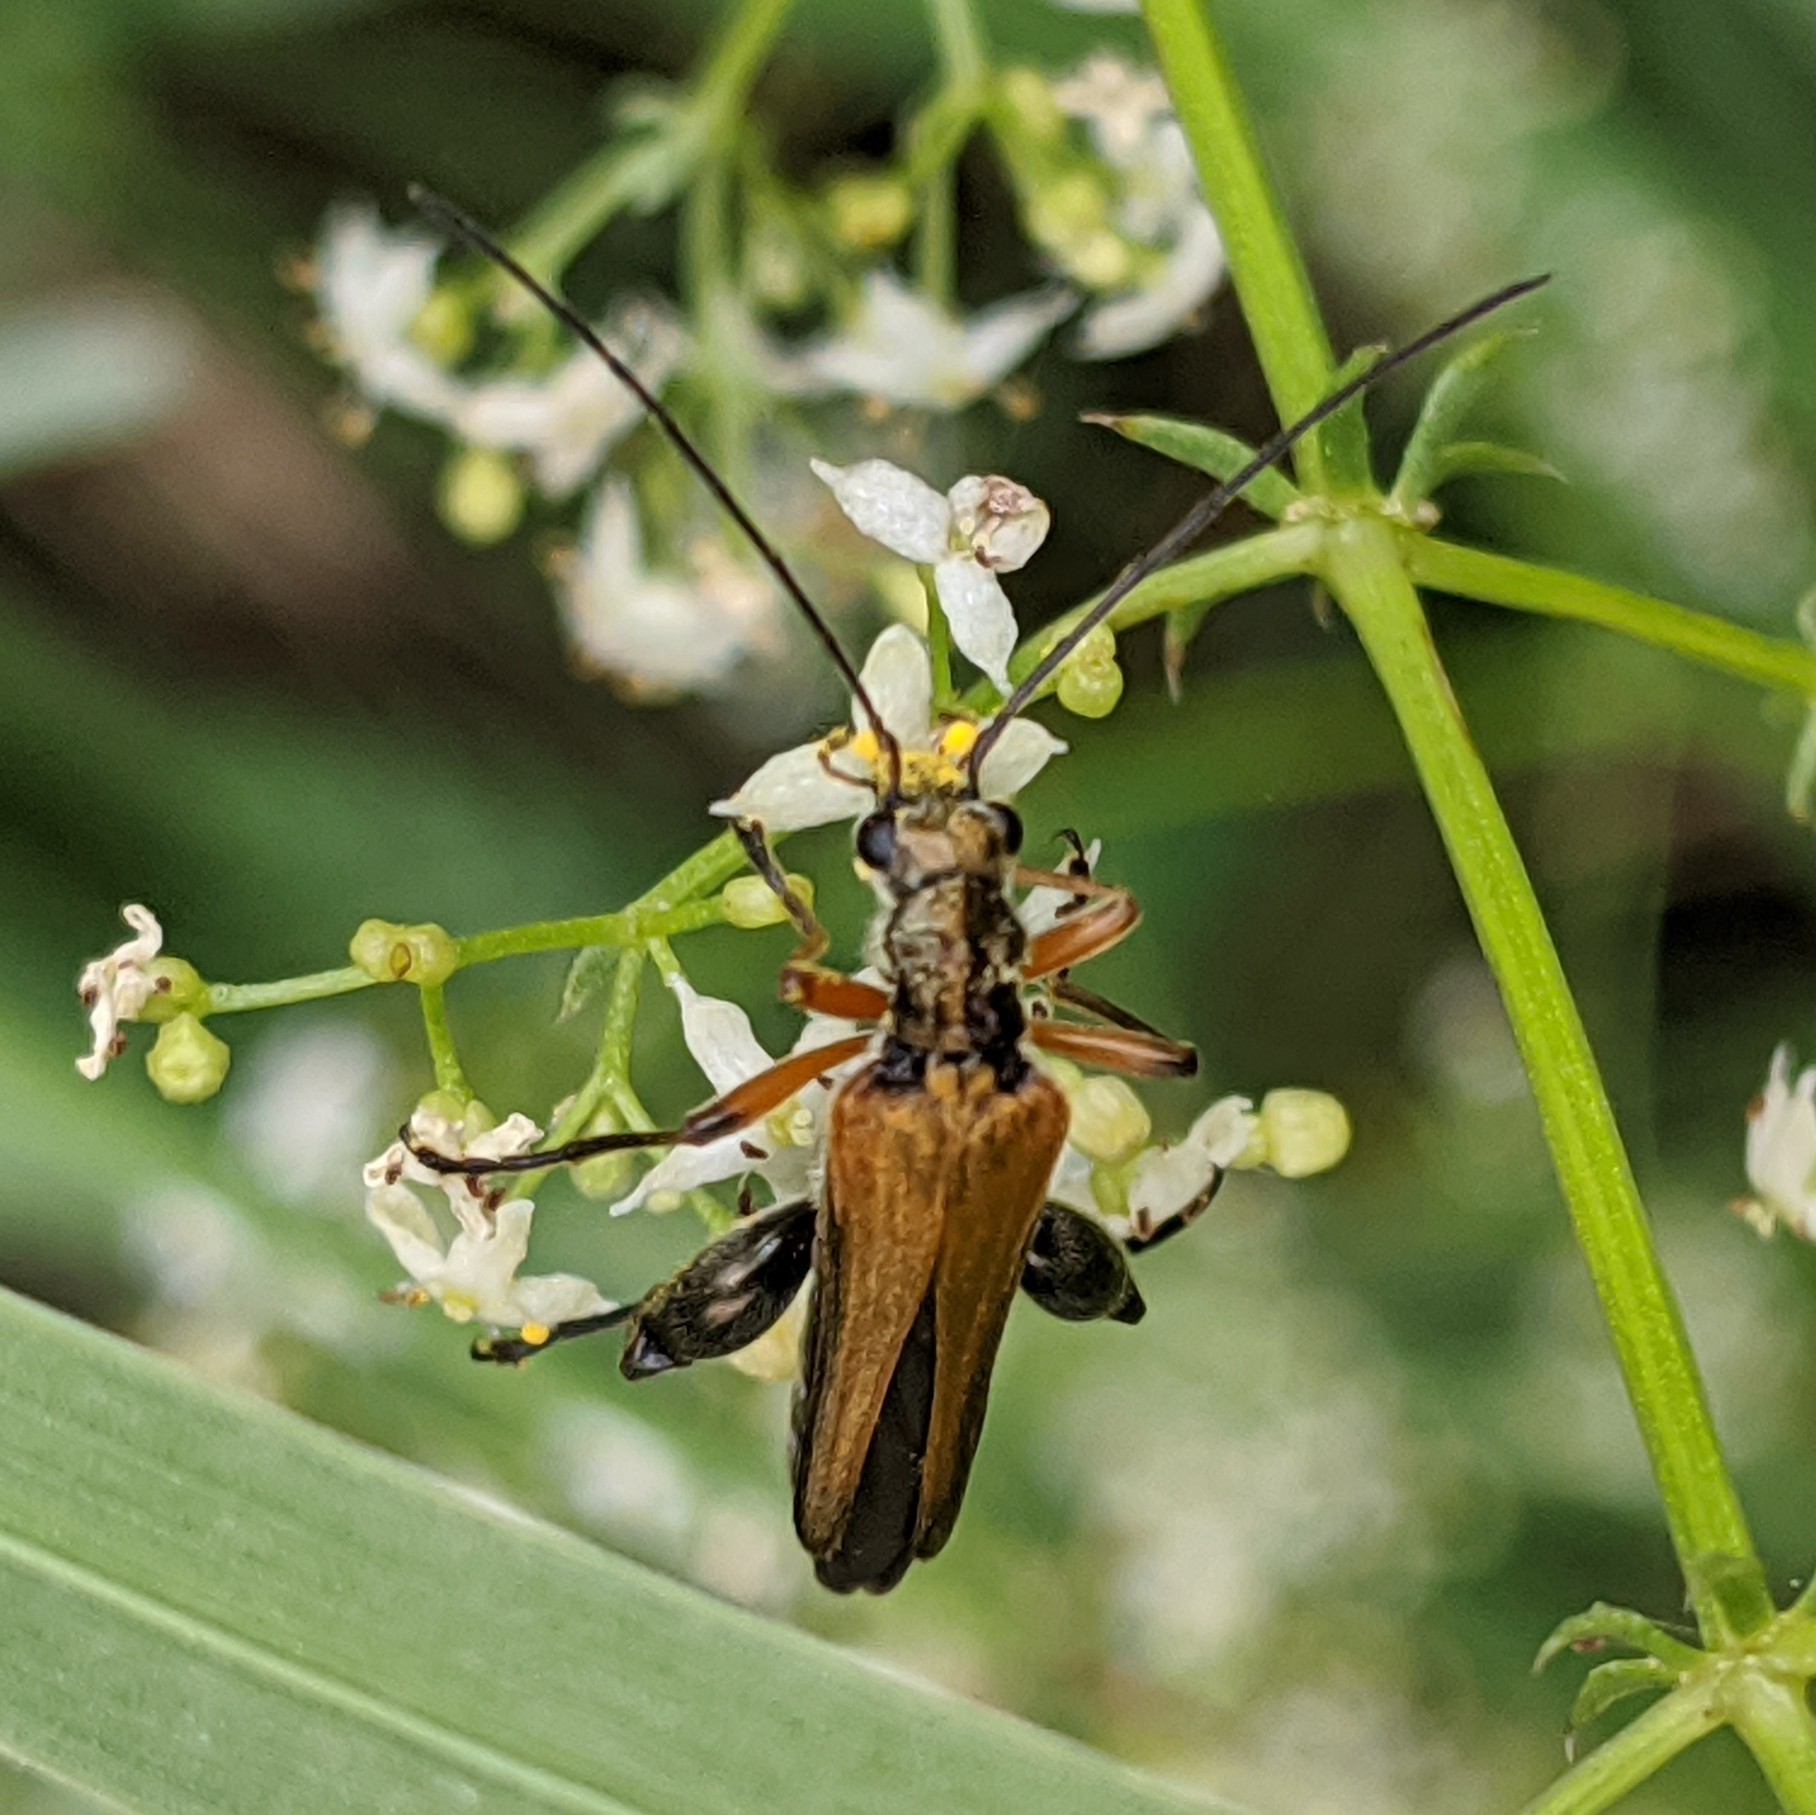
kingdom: Animalia
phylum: Arthropoda
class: Insecta
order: Coleoptera
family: Oedemeridae
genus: Oedemera
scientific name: Oedemera podagrariae
